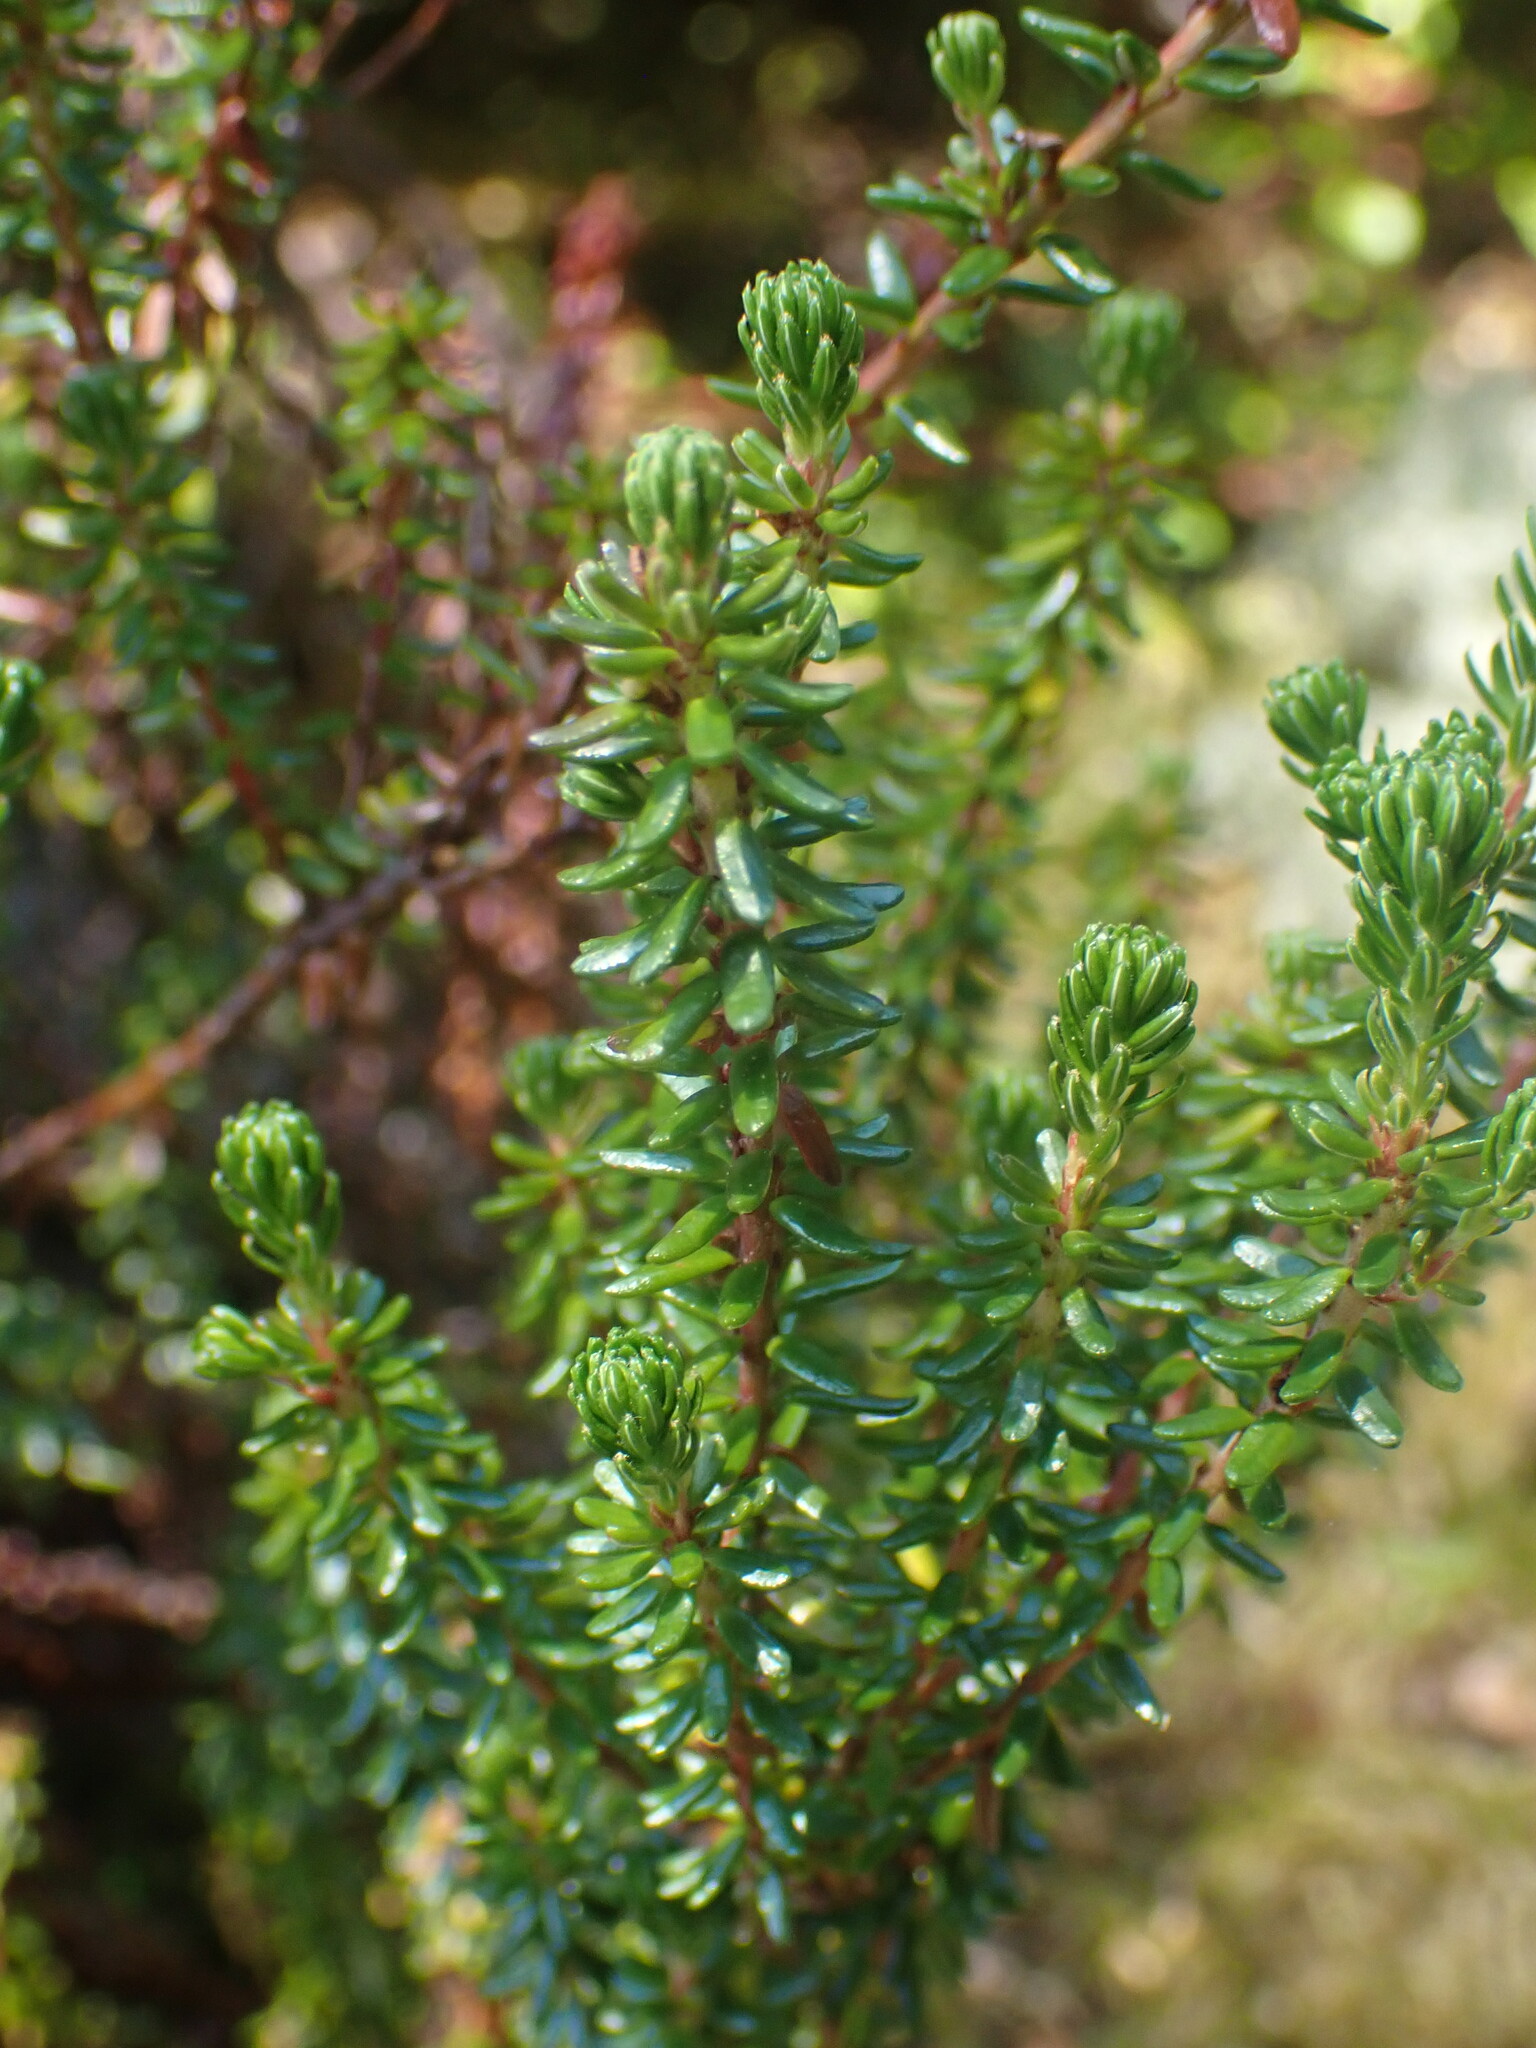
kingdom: Plantae
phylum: Tracheophyta
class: Magnoliopsida
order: Ericales
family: Ericaceae
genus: Empetrum
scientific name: Empetrum nigrum
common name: Black crowberry
